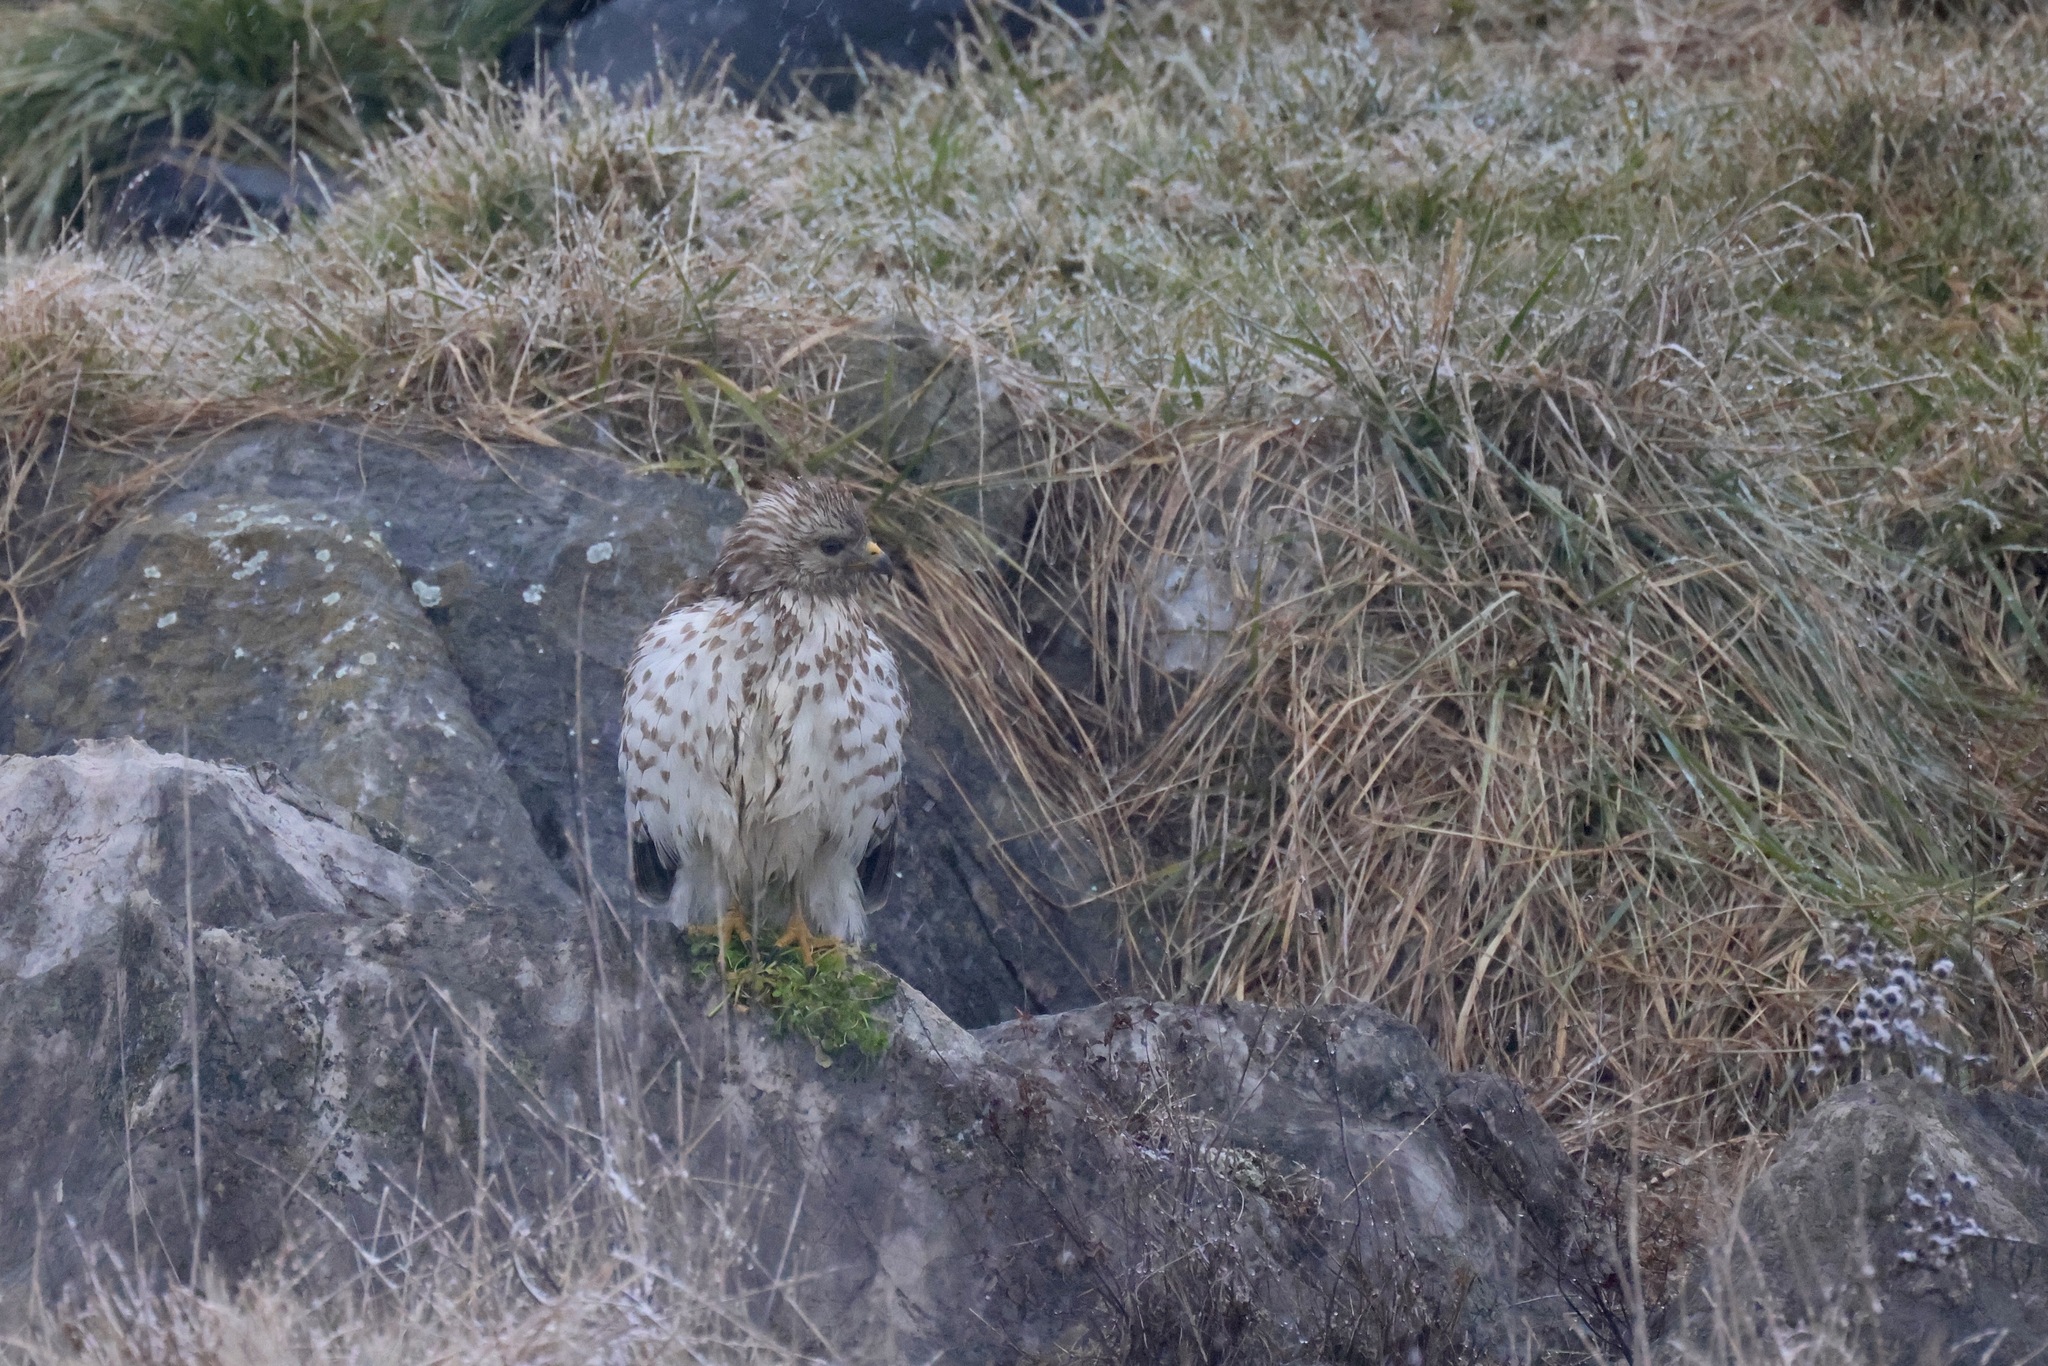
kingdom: Animalia
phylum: Chordata
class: Aves
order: Accipitriformes
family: Accipitridae
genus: Buteo
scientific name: Buteo lineatus
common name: Red-shouldered hawk
